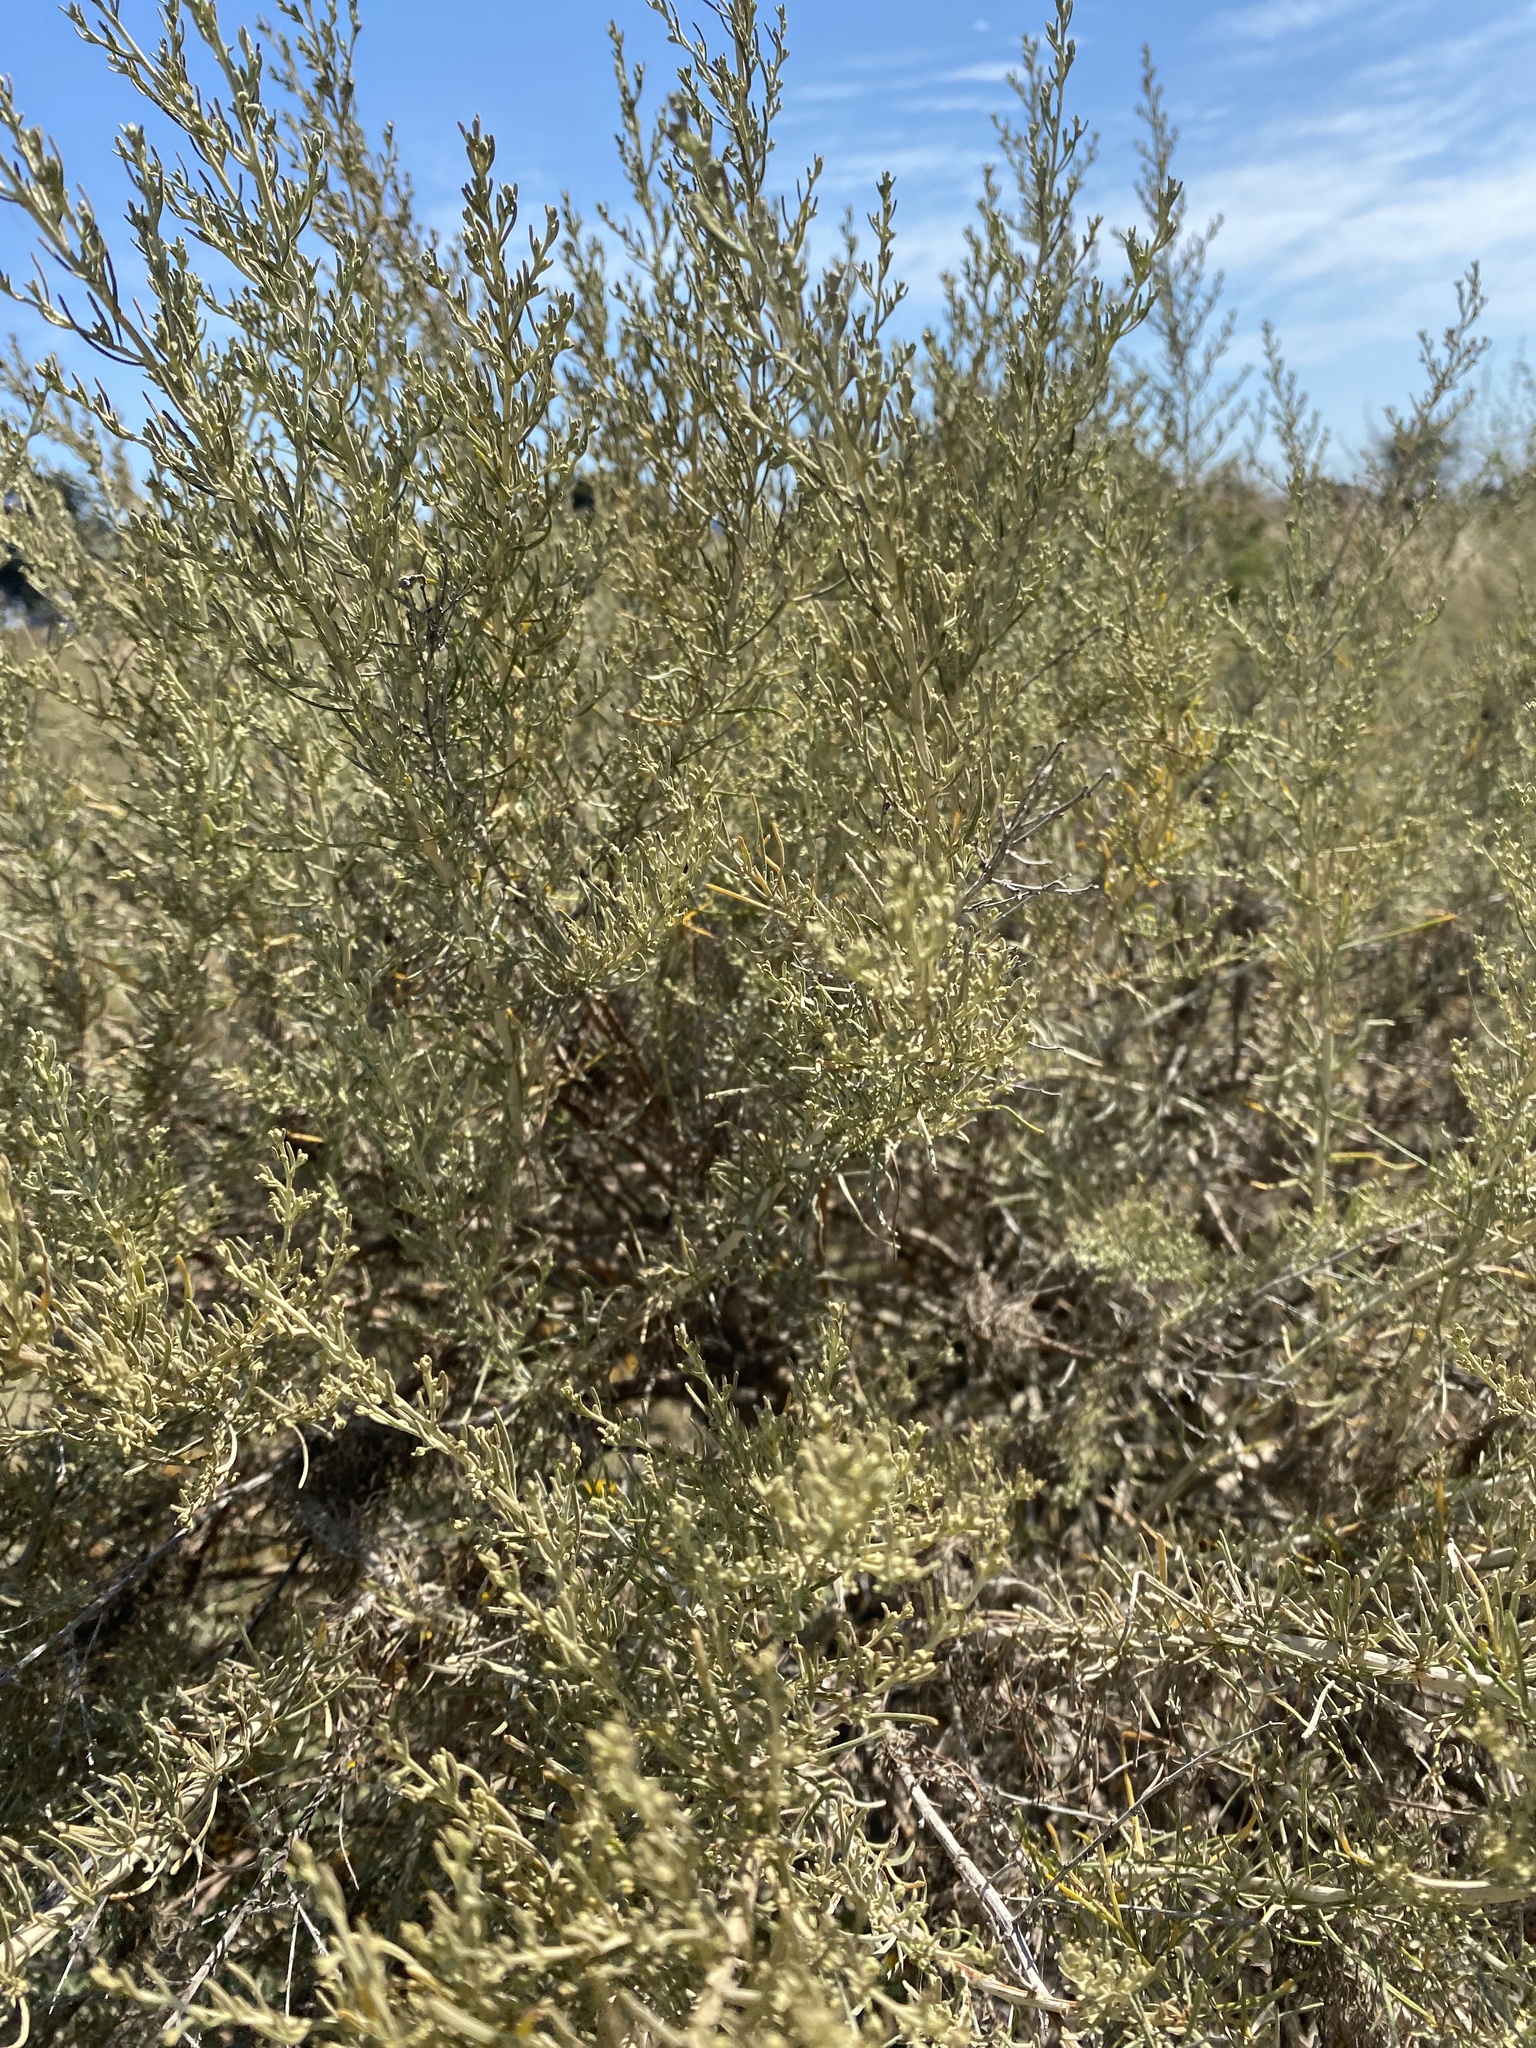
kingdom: Plantae
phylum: Tracheophyta
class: Magnoliopsida
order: Asterales
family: Asteraceae
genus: Artemisia
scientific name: Artemisia californica
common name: California sagebrush
